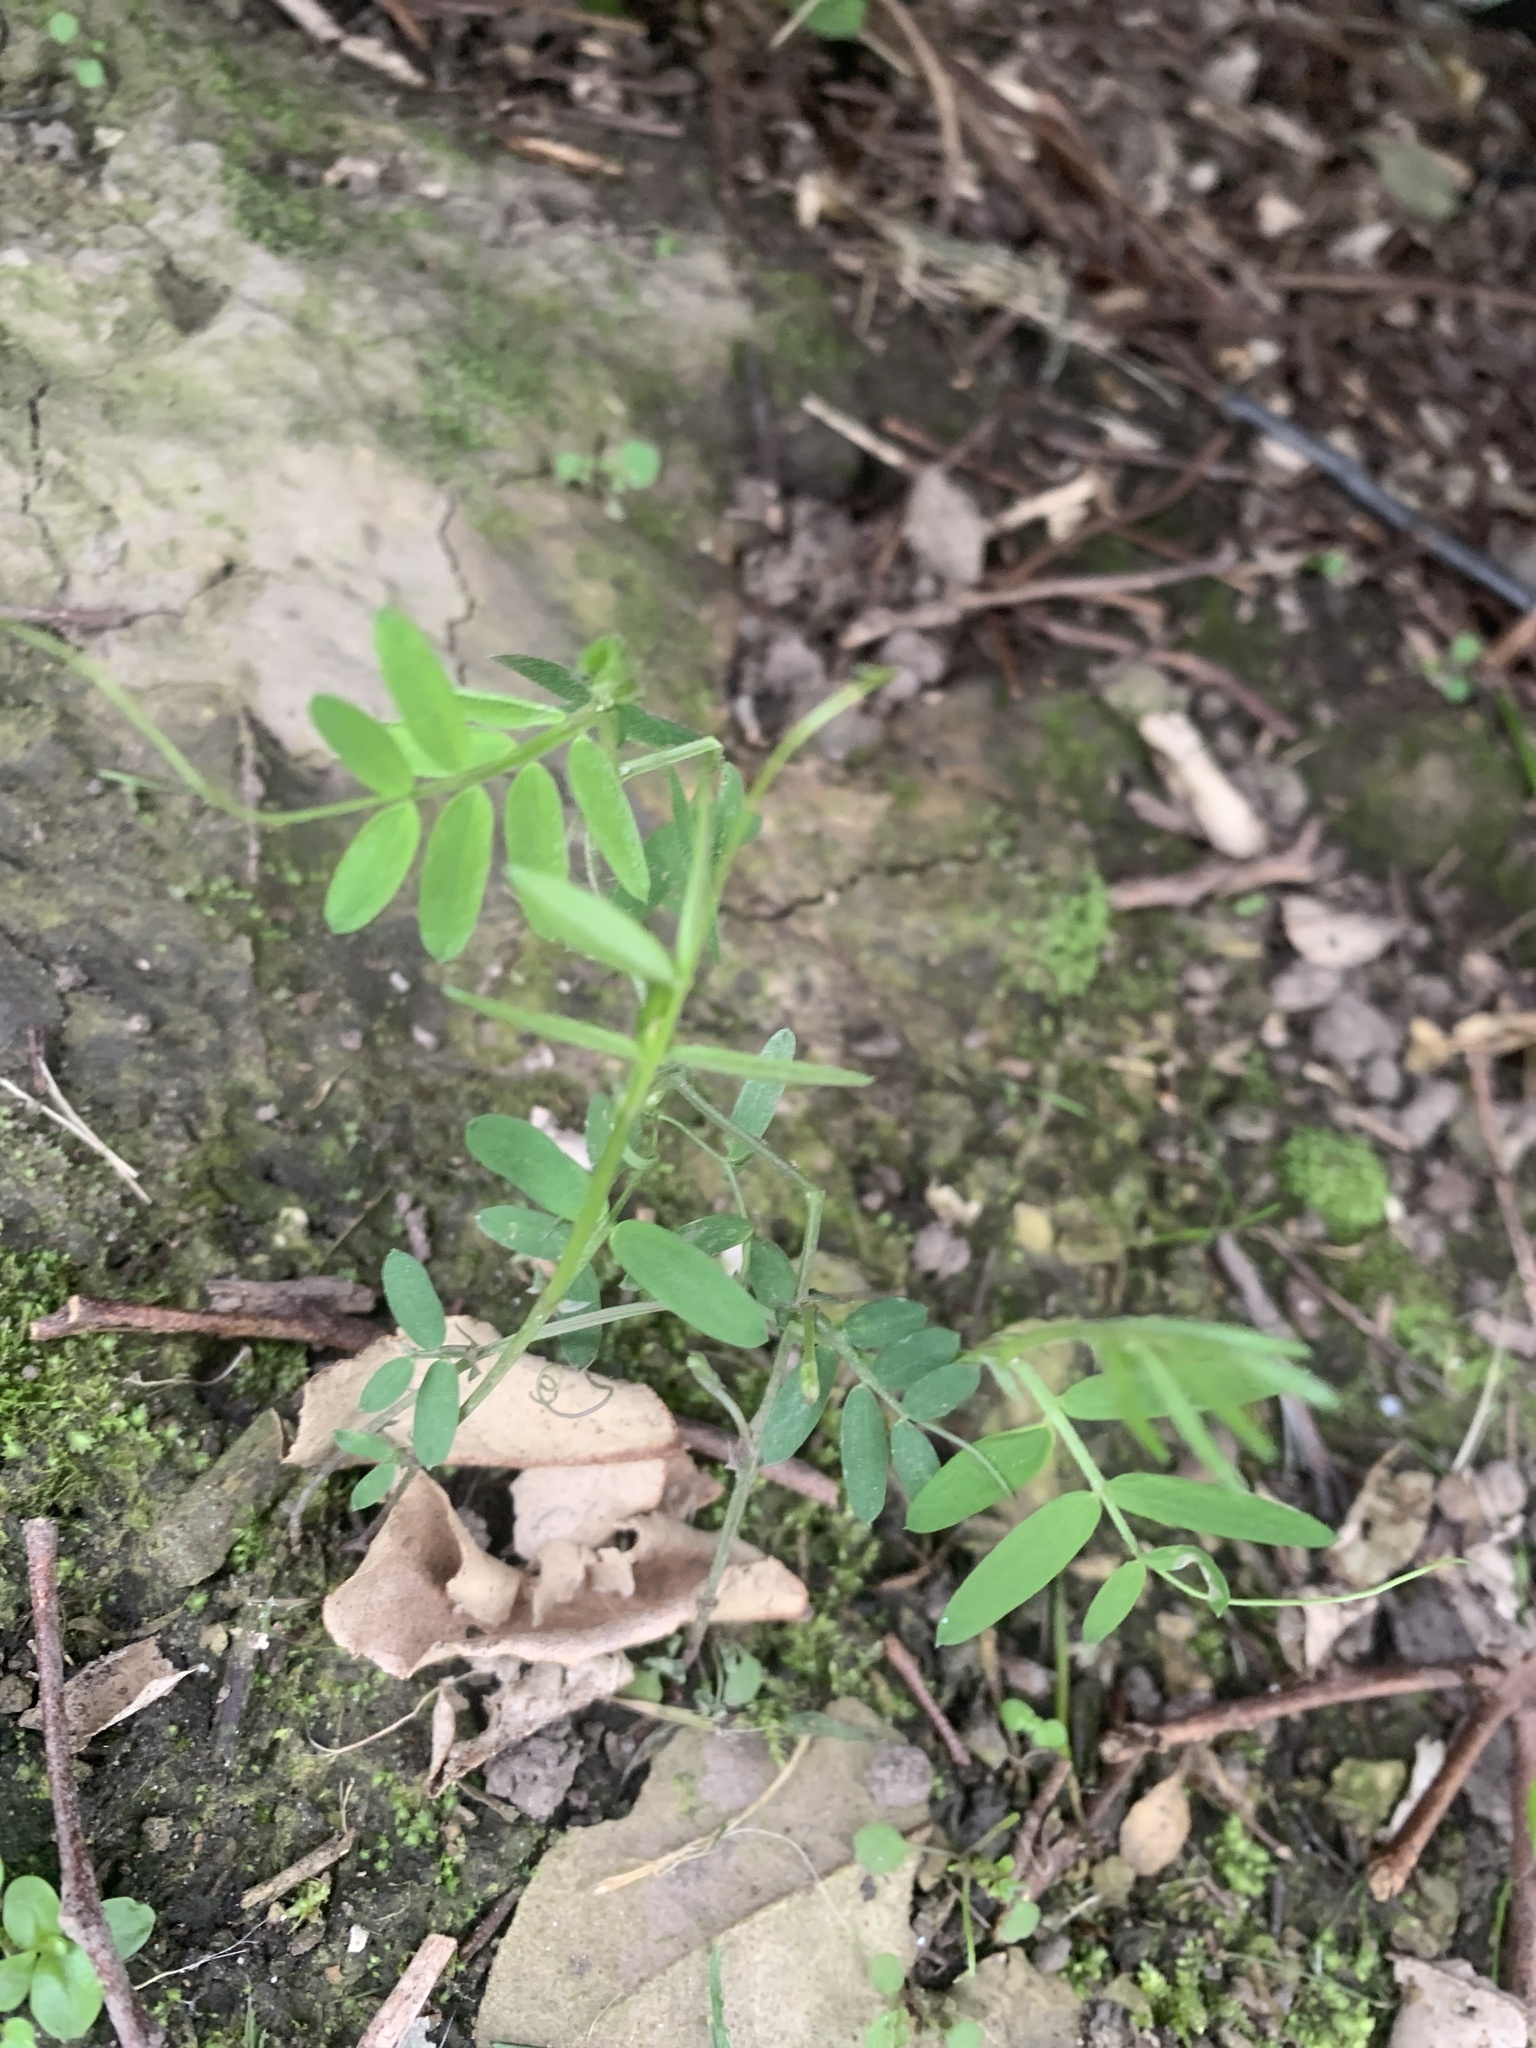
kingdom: Plantae
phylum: Tracheophyta
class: Magnoliopsida
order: Fabales
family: Fabaceae
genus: Vicia
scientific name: Vicia cracca
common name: Bird vetch
